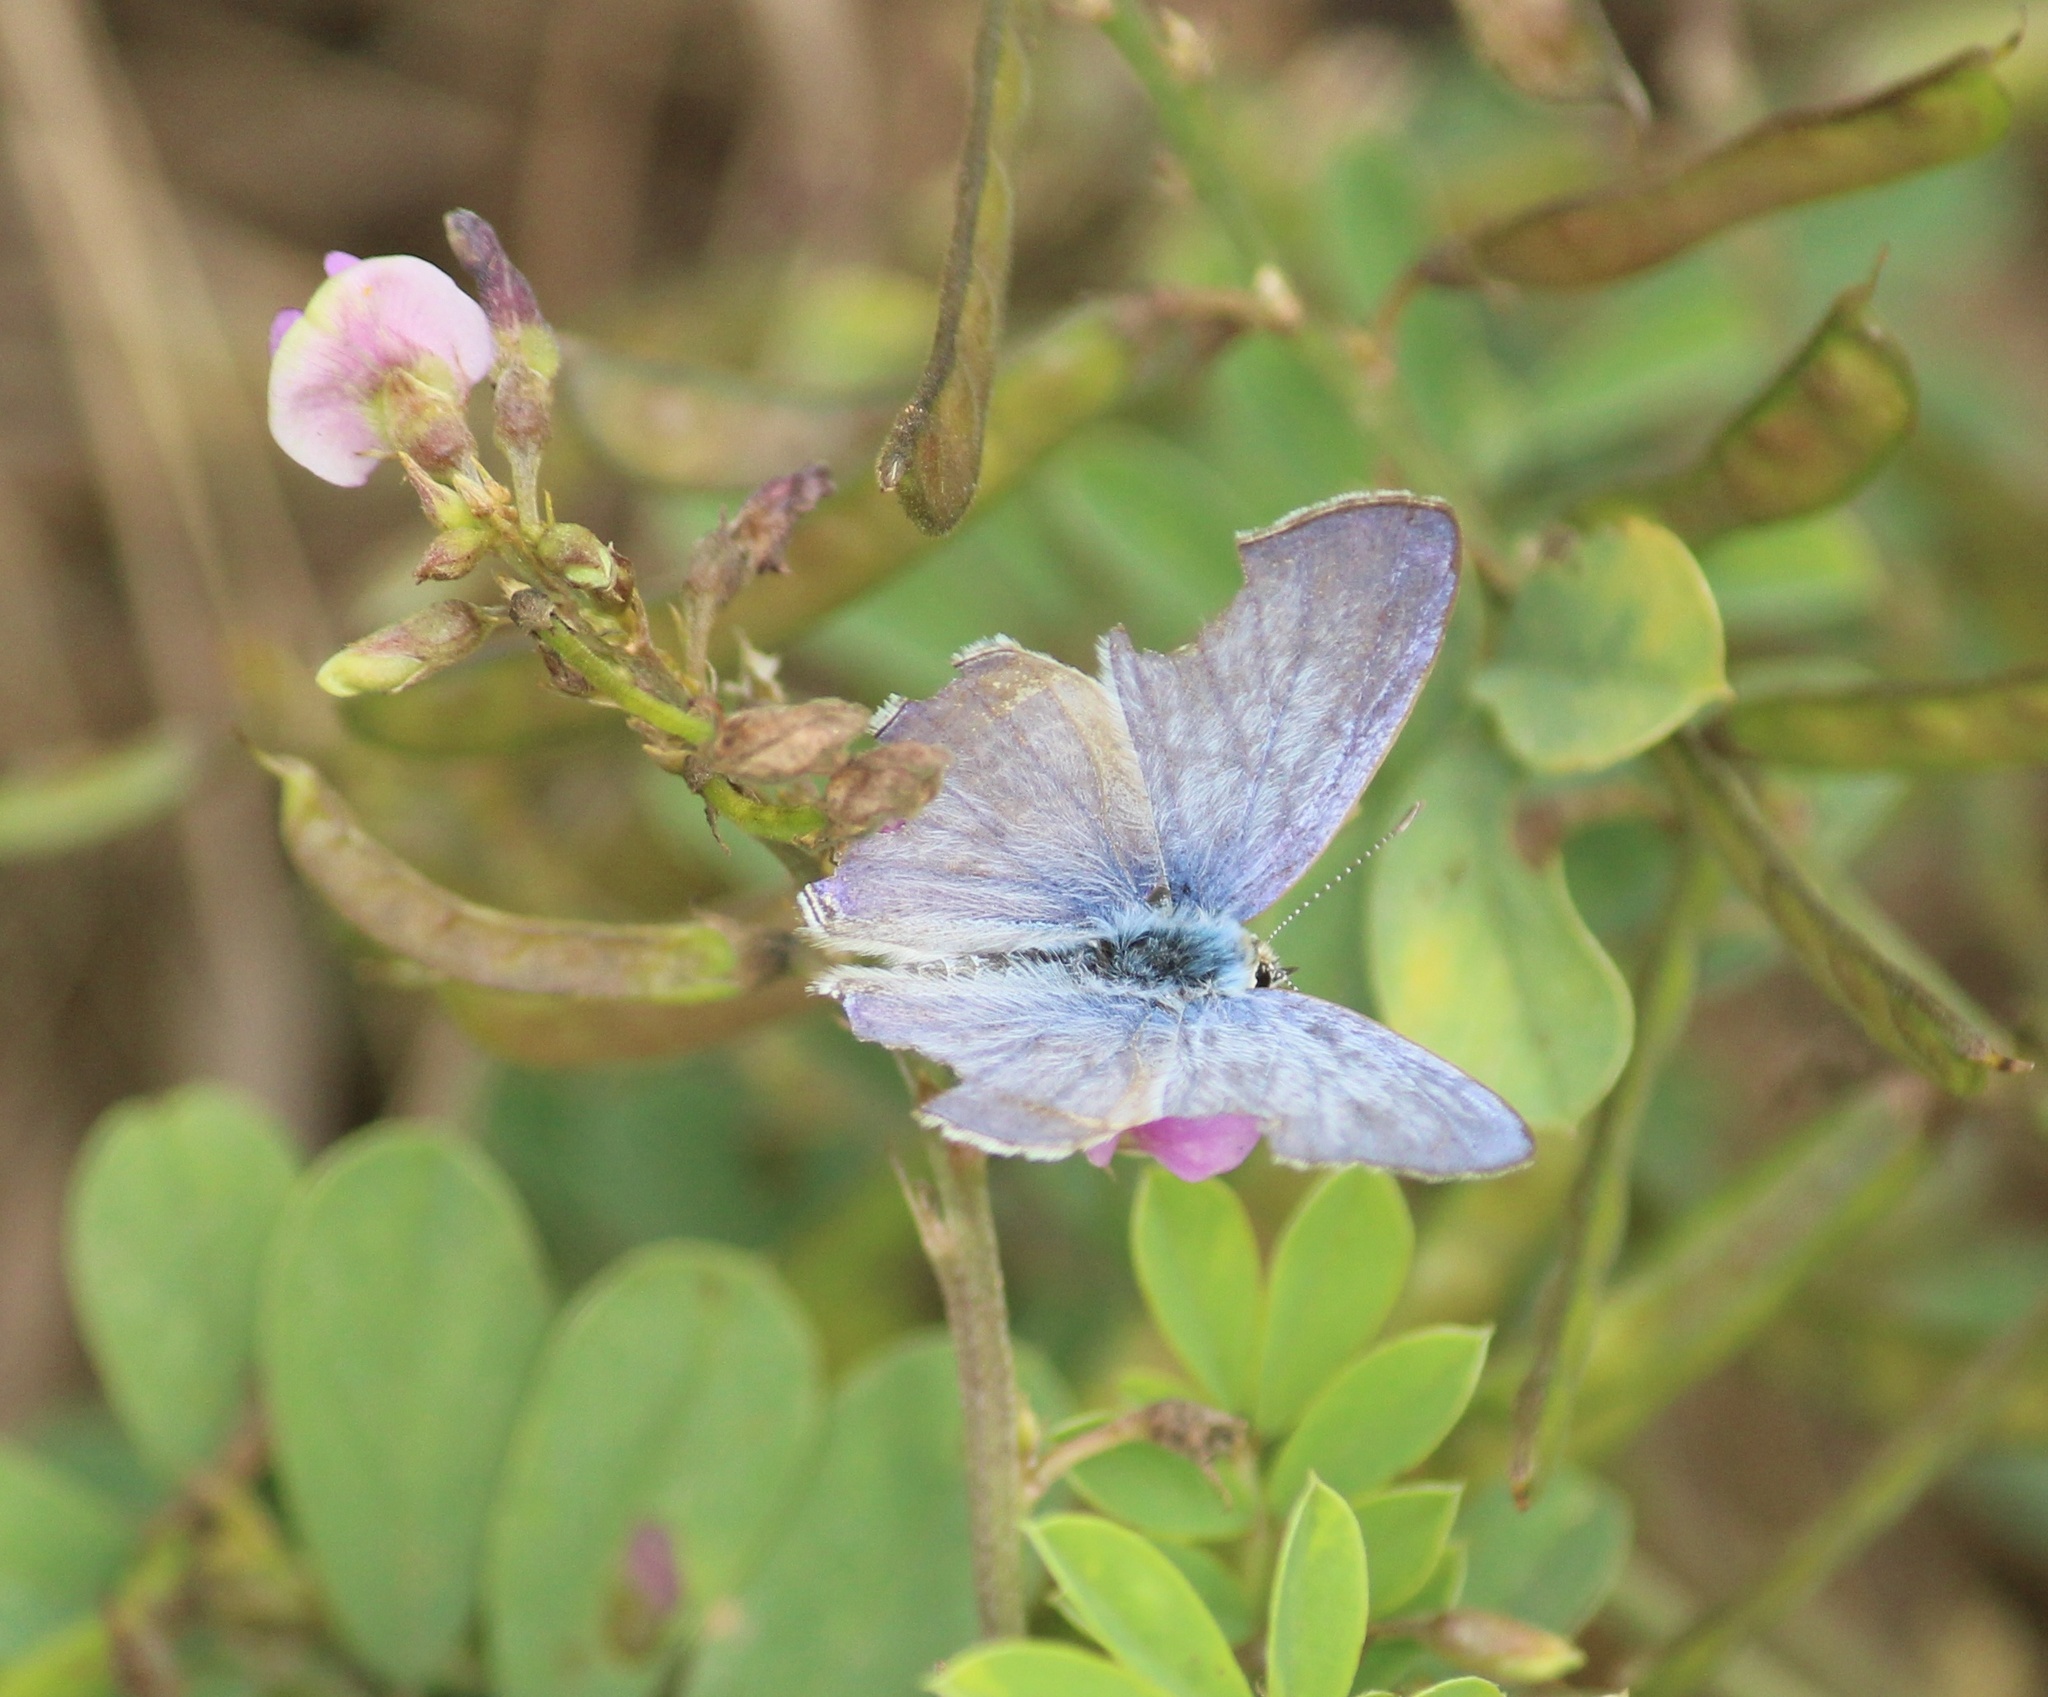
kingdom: Animalia
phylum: Arthropoda
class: Insecta
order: Lepidoptera
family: Lycaenidae
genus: Catochrysops
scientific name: Catochrysops strabo
